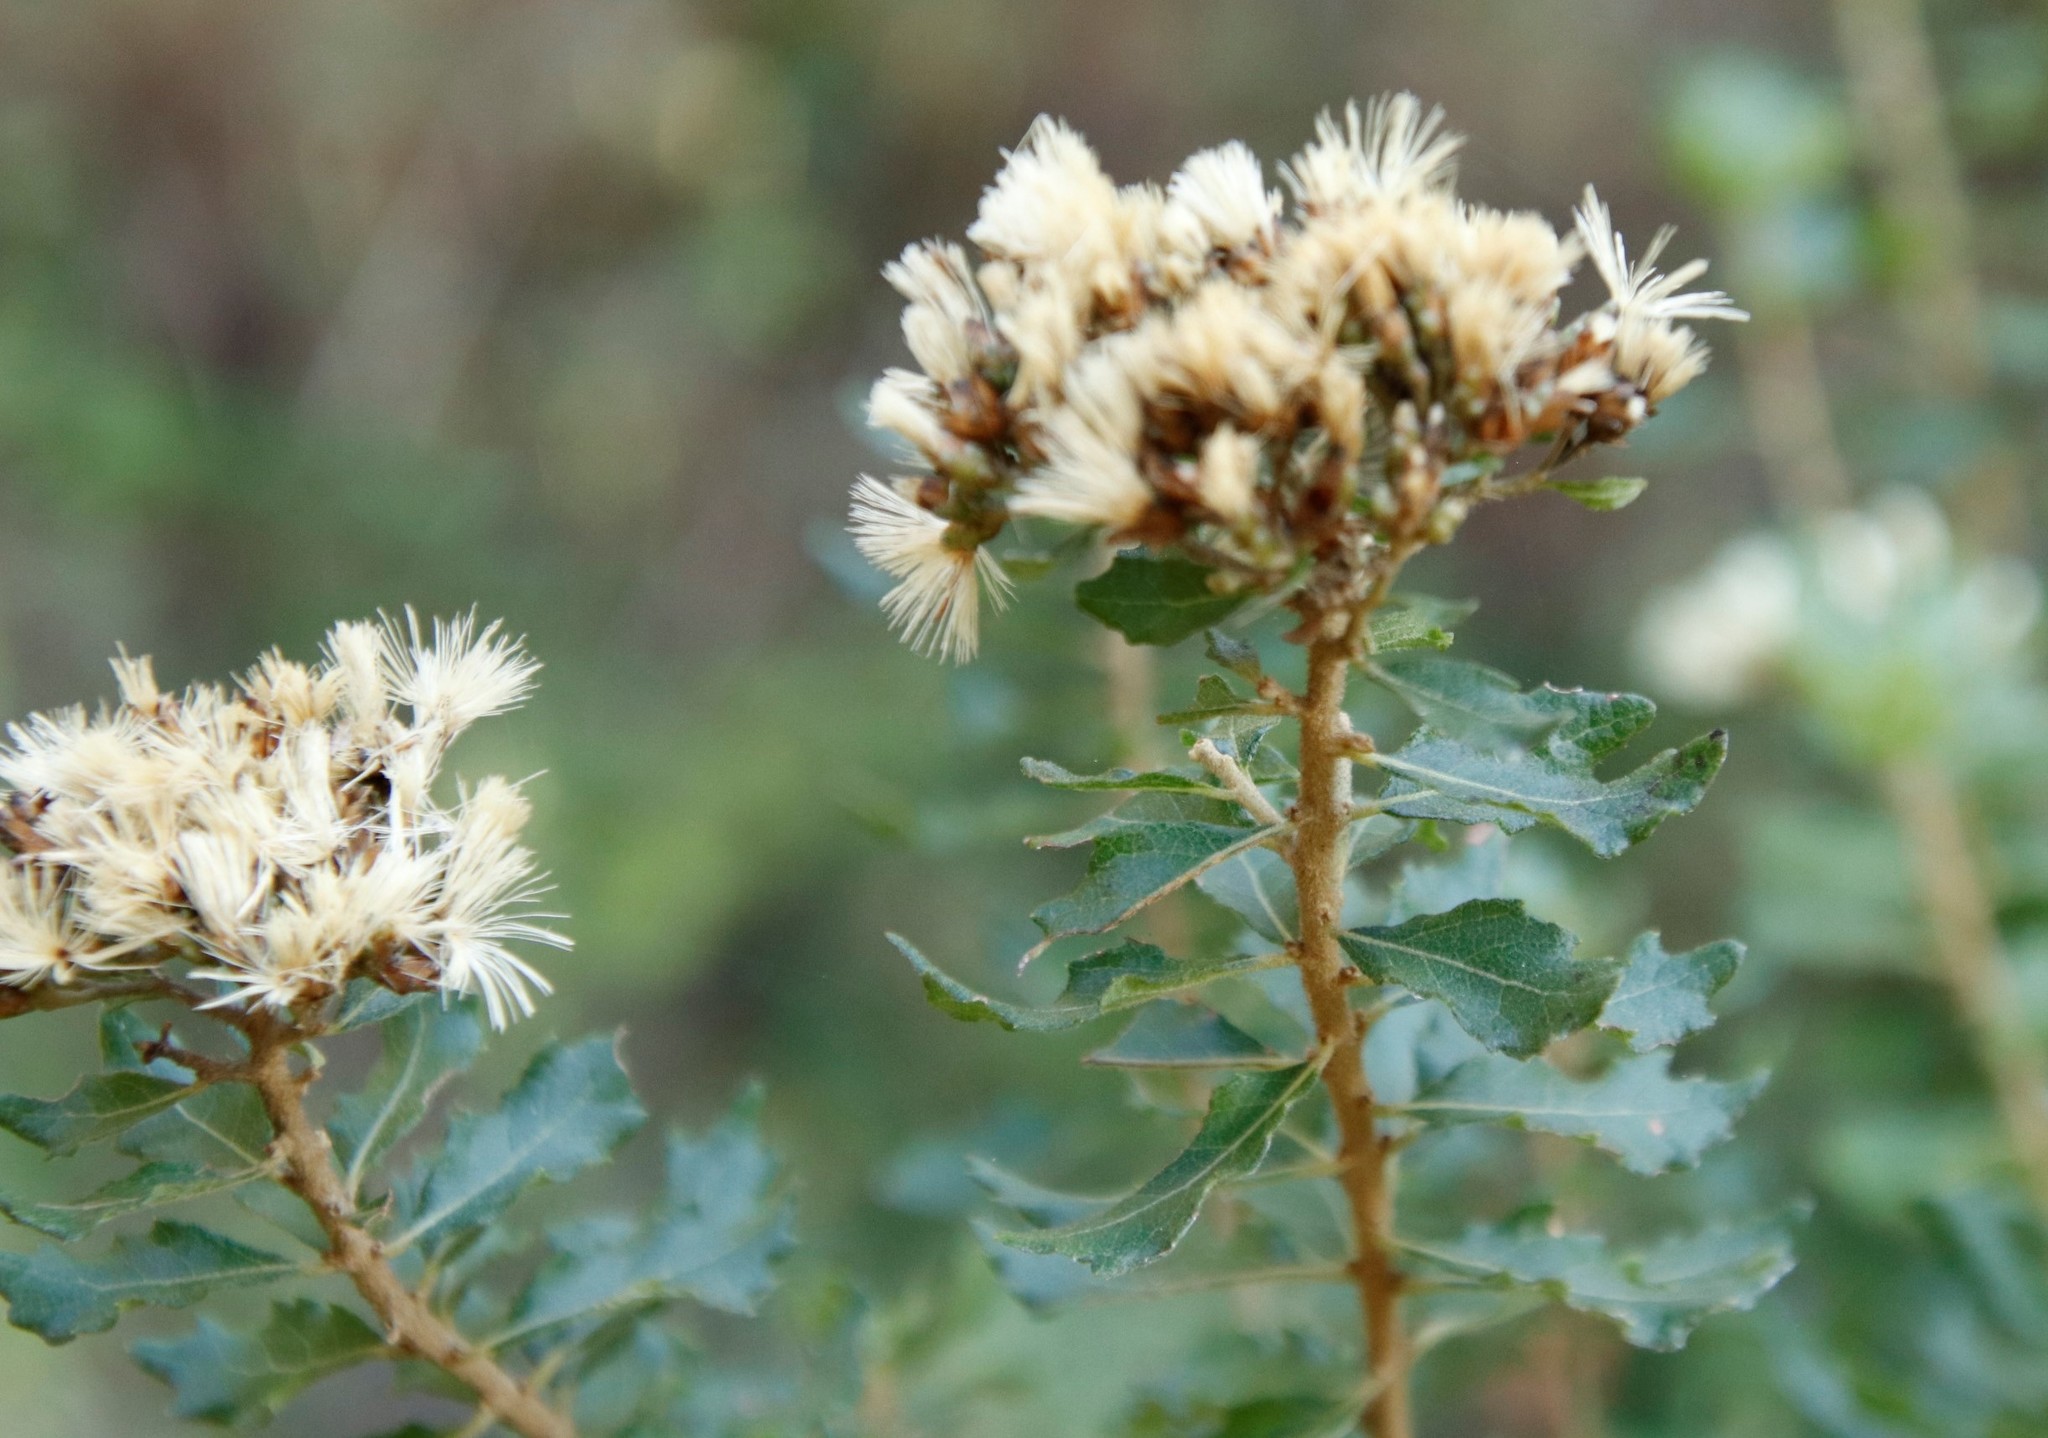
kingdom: Plantae
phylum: Tracheophyta
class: Magnoliopsida
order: Asterales
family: Asteraceae
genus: Gymnanthemum
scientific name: Gymnanthemum triflorum
